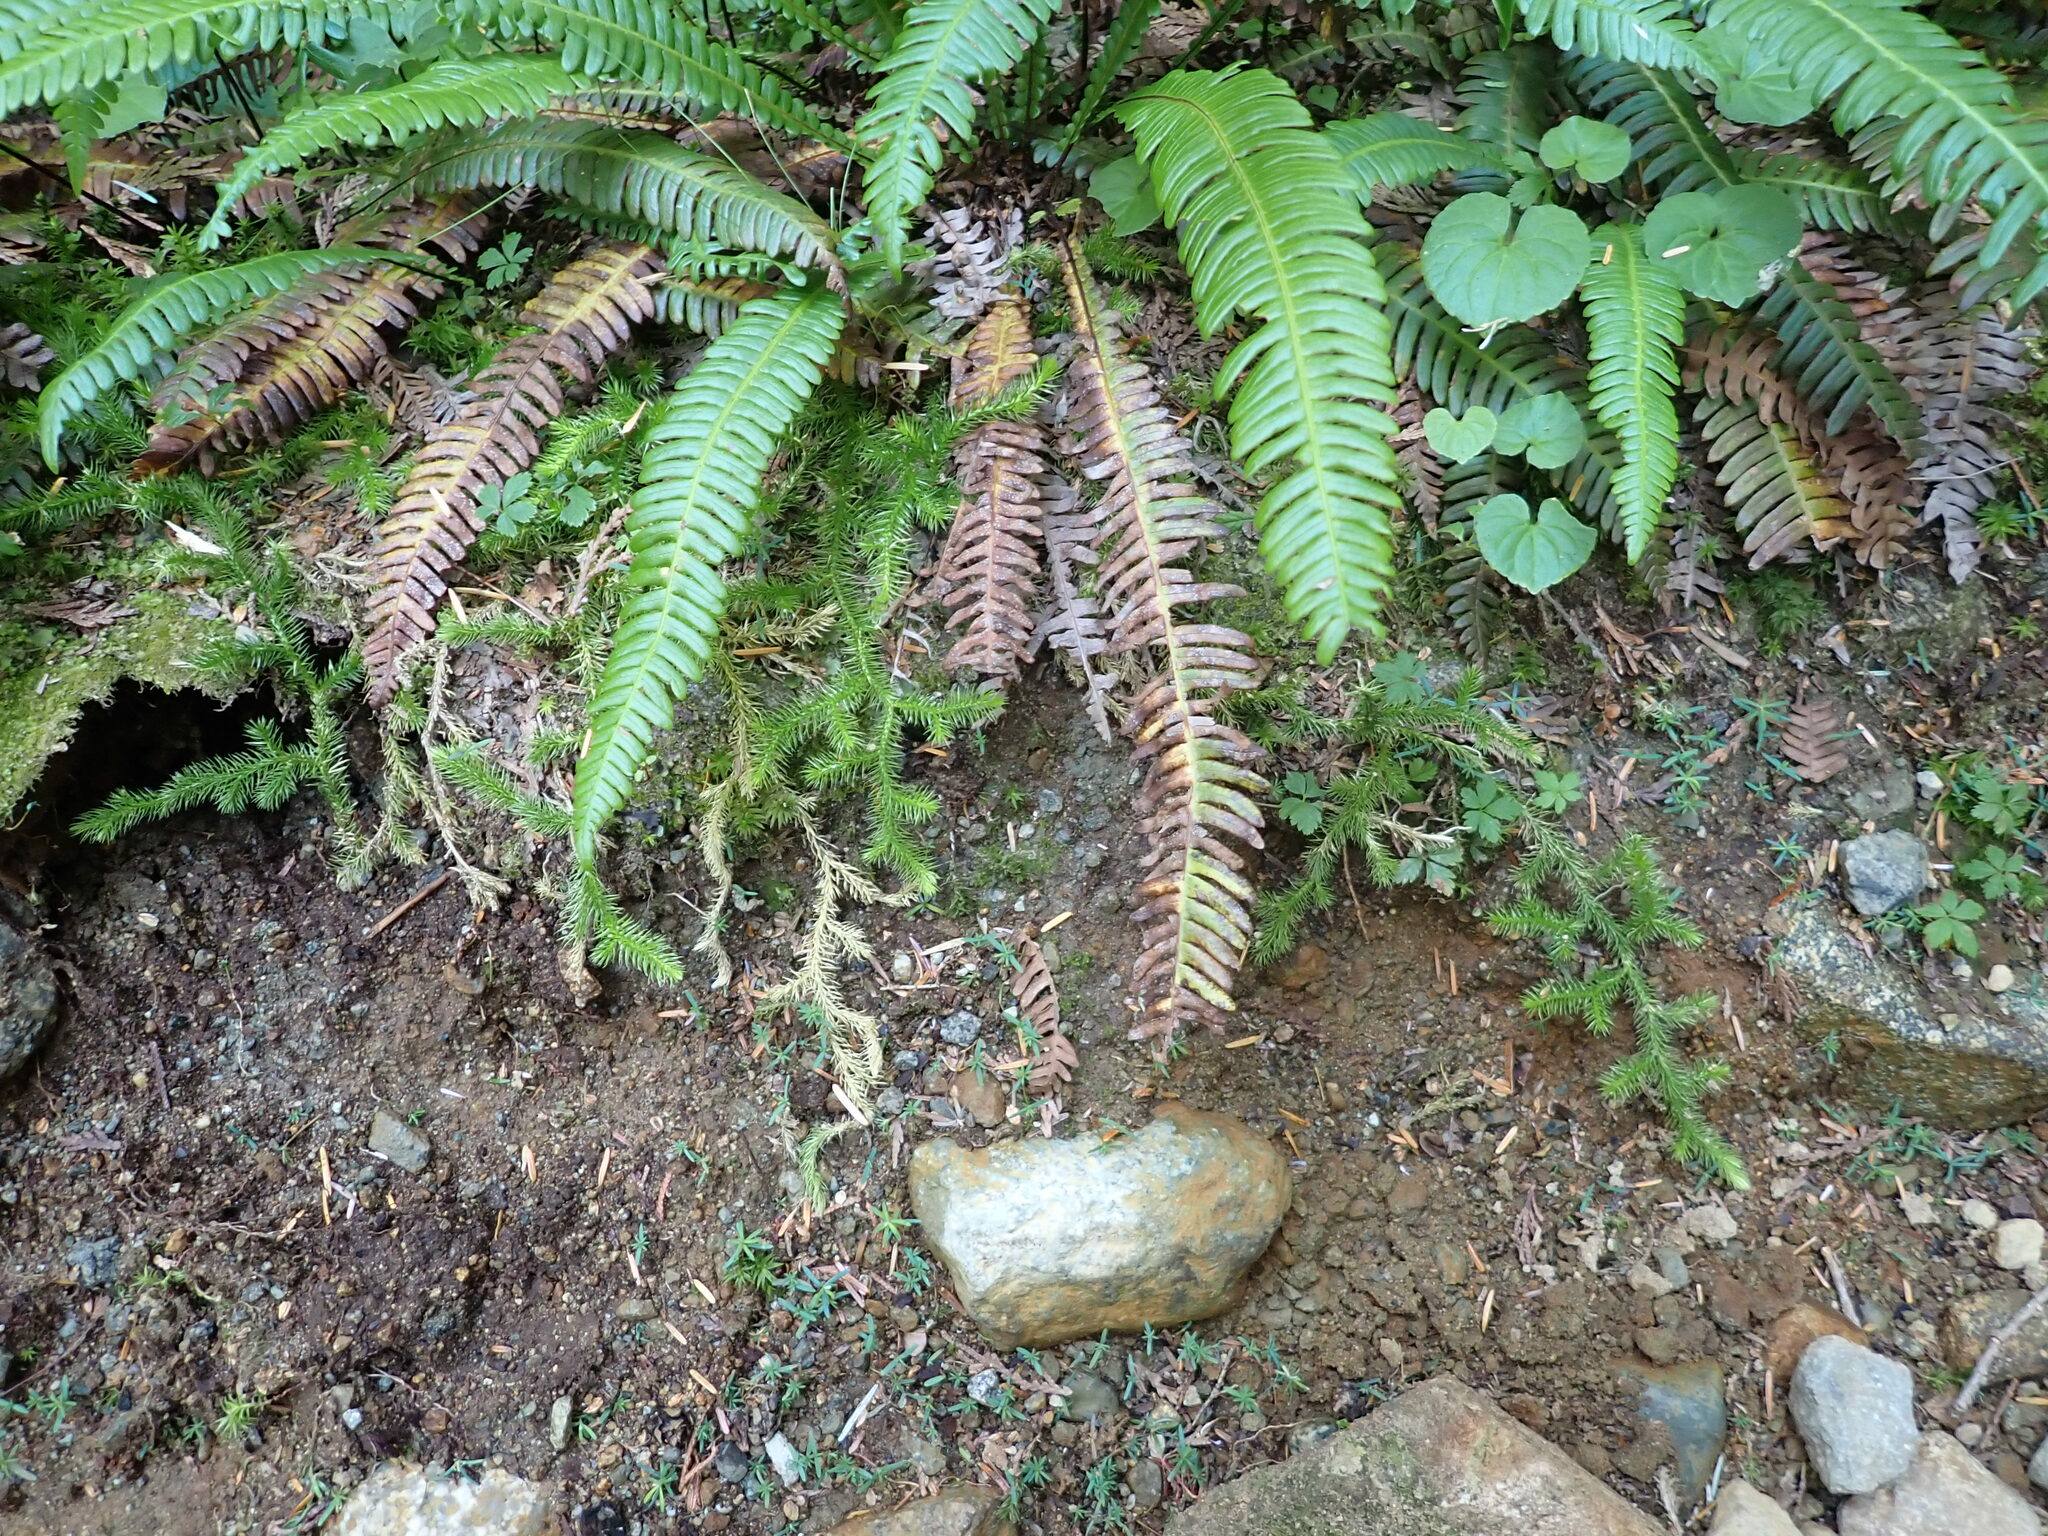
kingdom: Plantae
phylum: Tracheophyta
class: Lycopodiopsida
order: Lycopodiales
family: Lycopodiaceae
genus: Lycopodium
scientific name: Lycopodium clavatum
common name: Stag's-horn clubmoss
